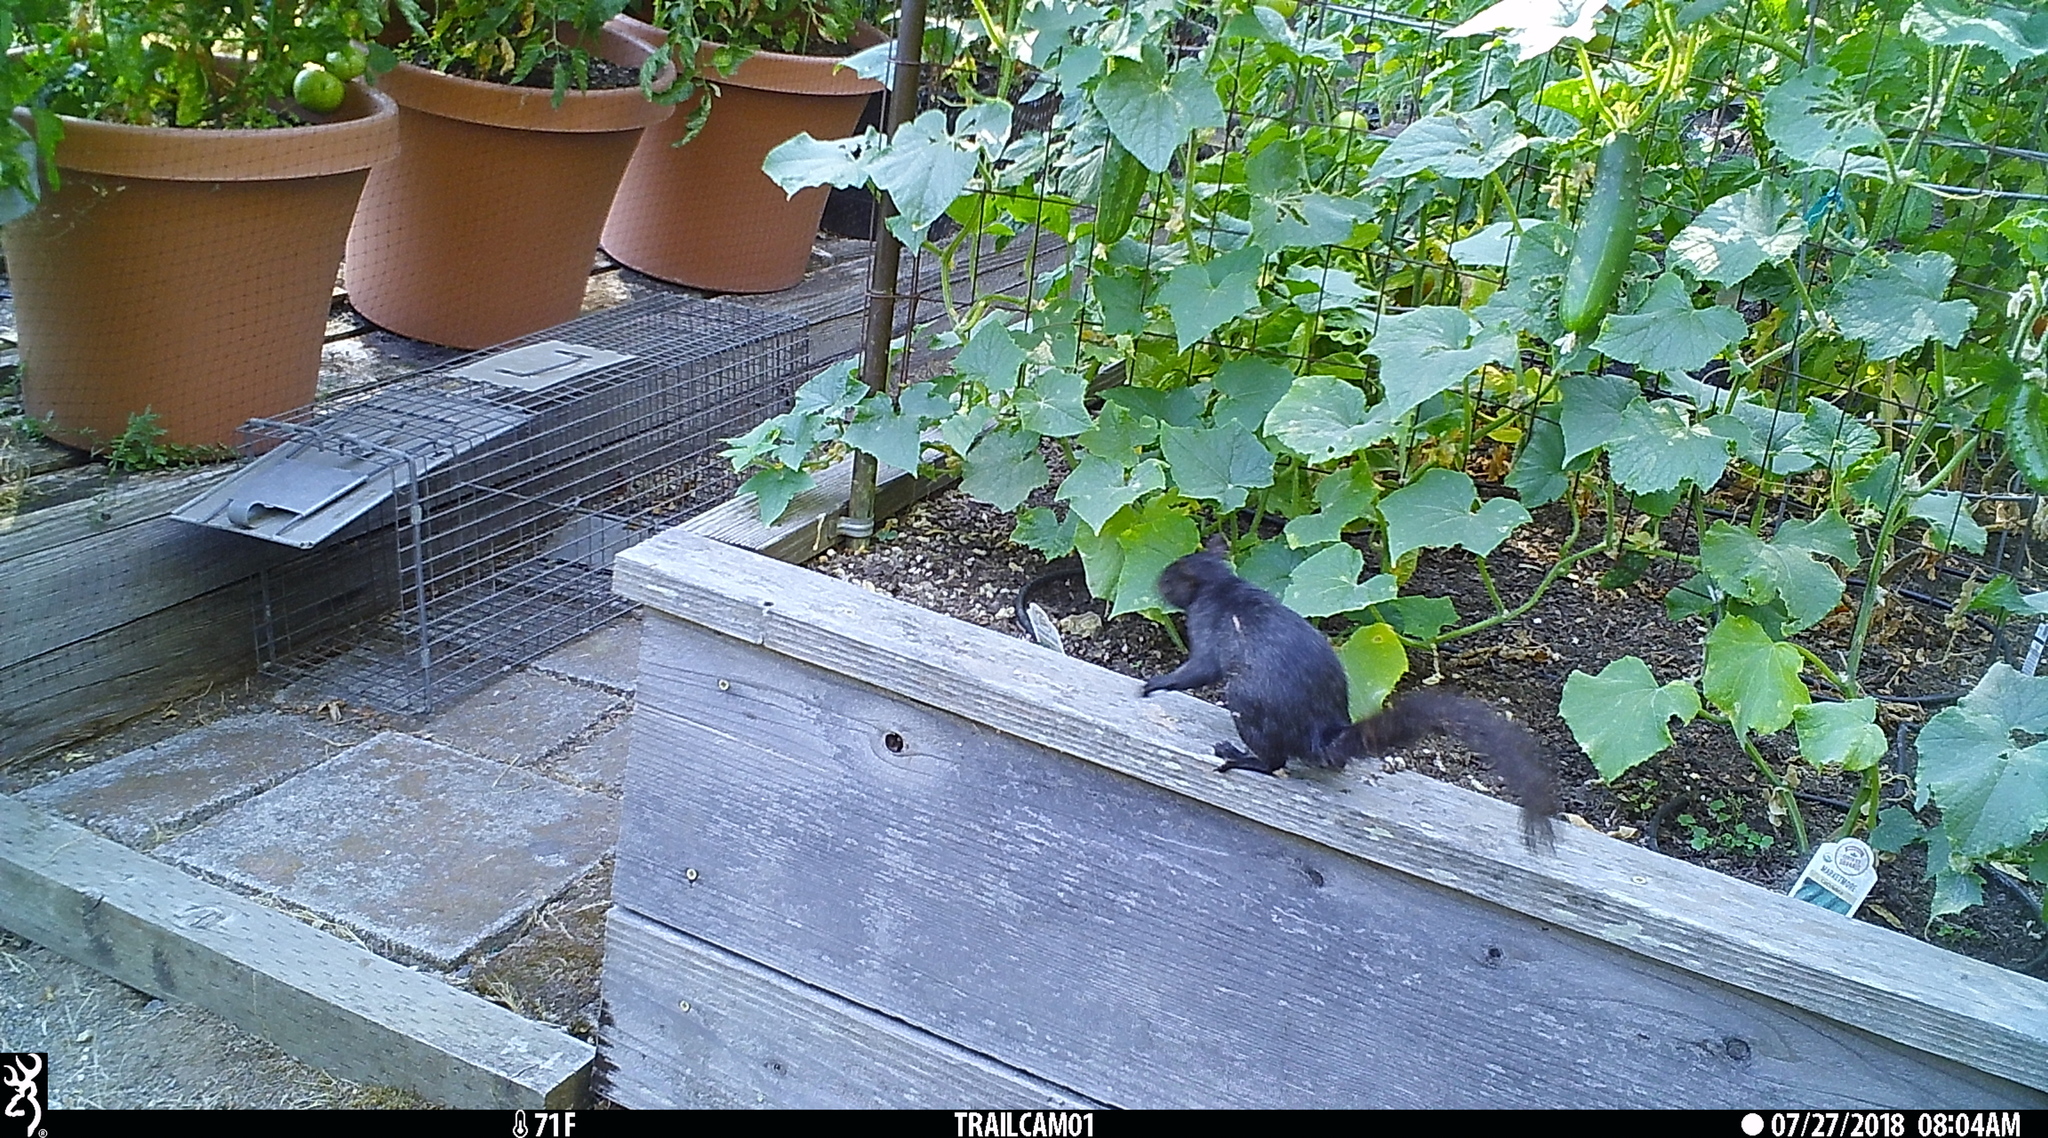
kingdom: Animalia
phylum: Chordata
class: Mammalia
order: Rodentia
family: Sciuridae
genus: Sciurus
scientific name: Sciurus carolinensis
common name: Eastern gray squirrel
